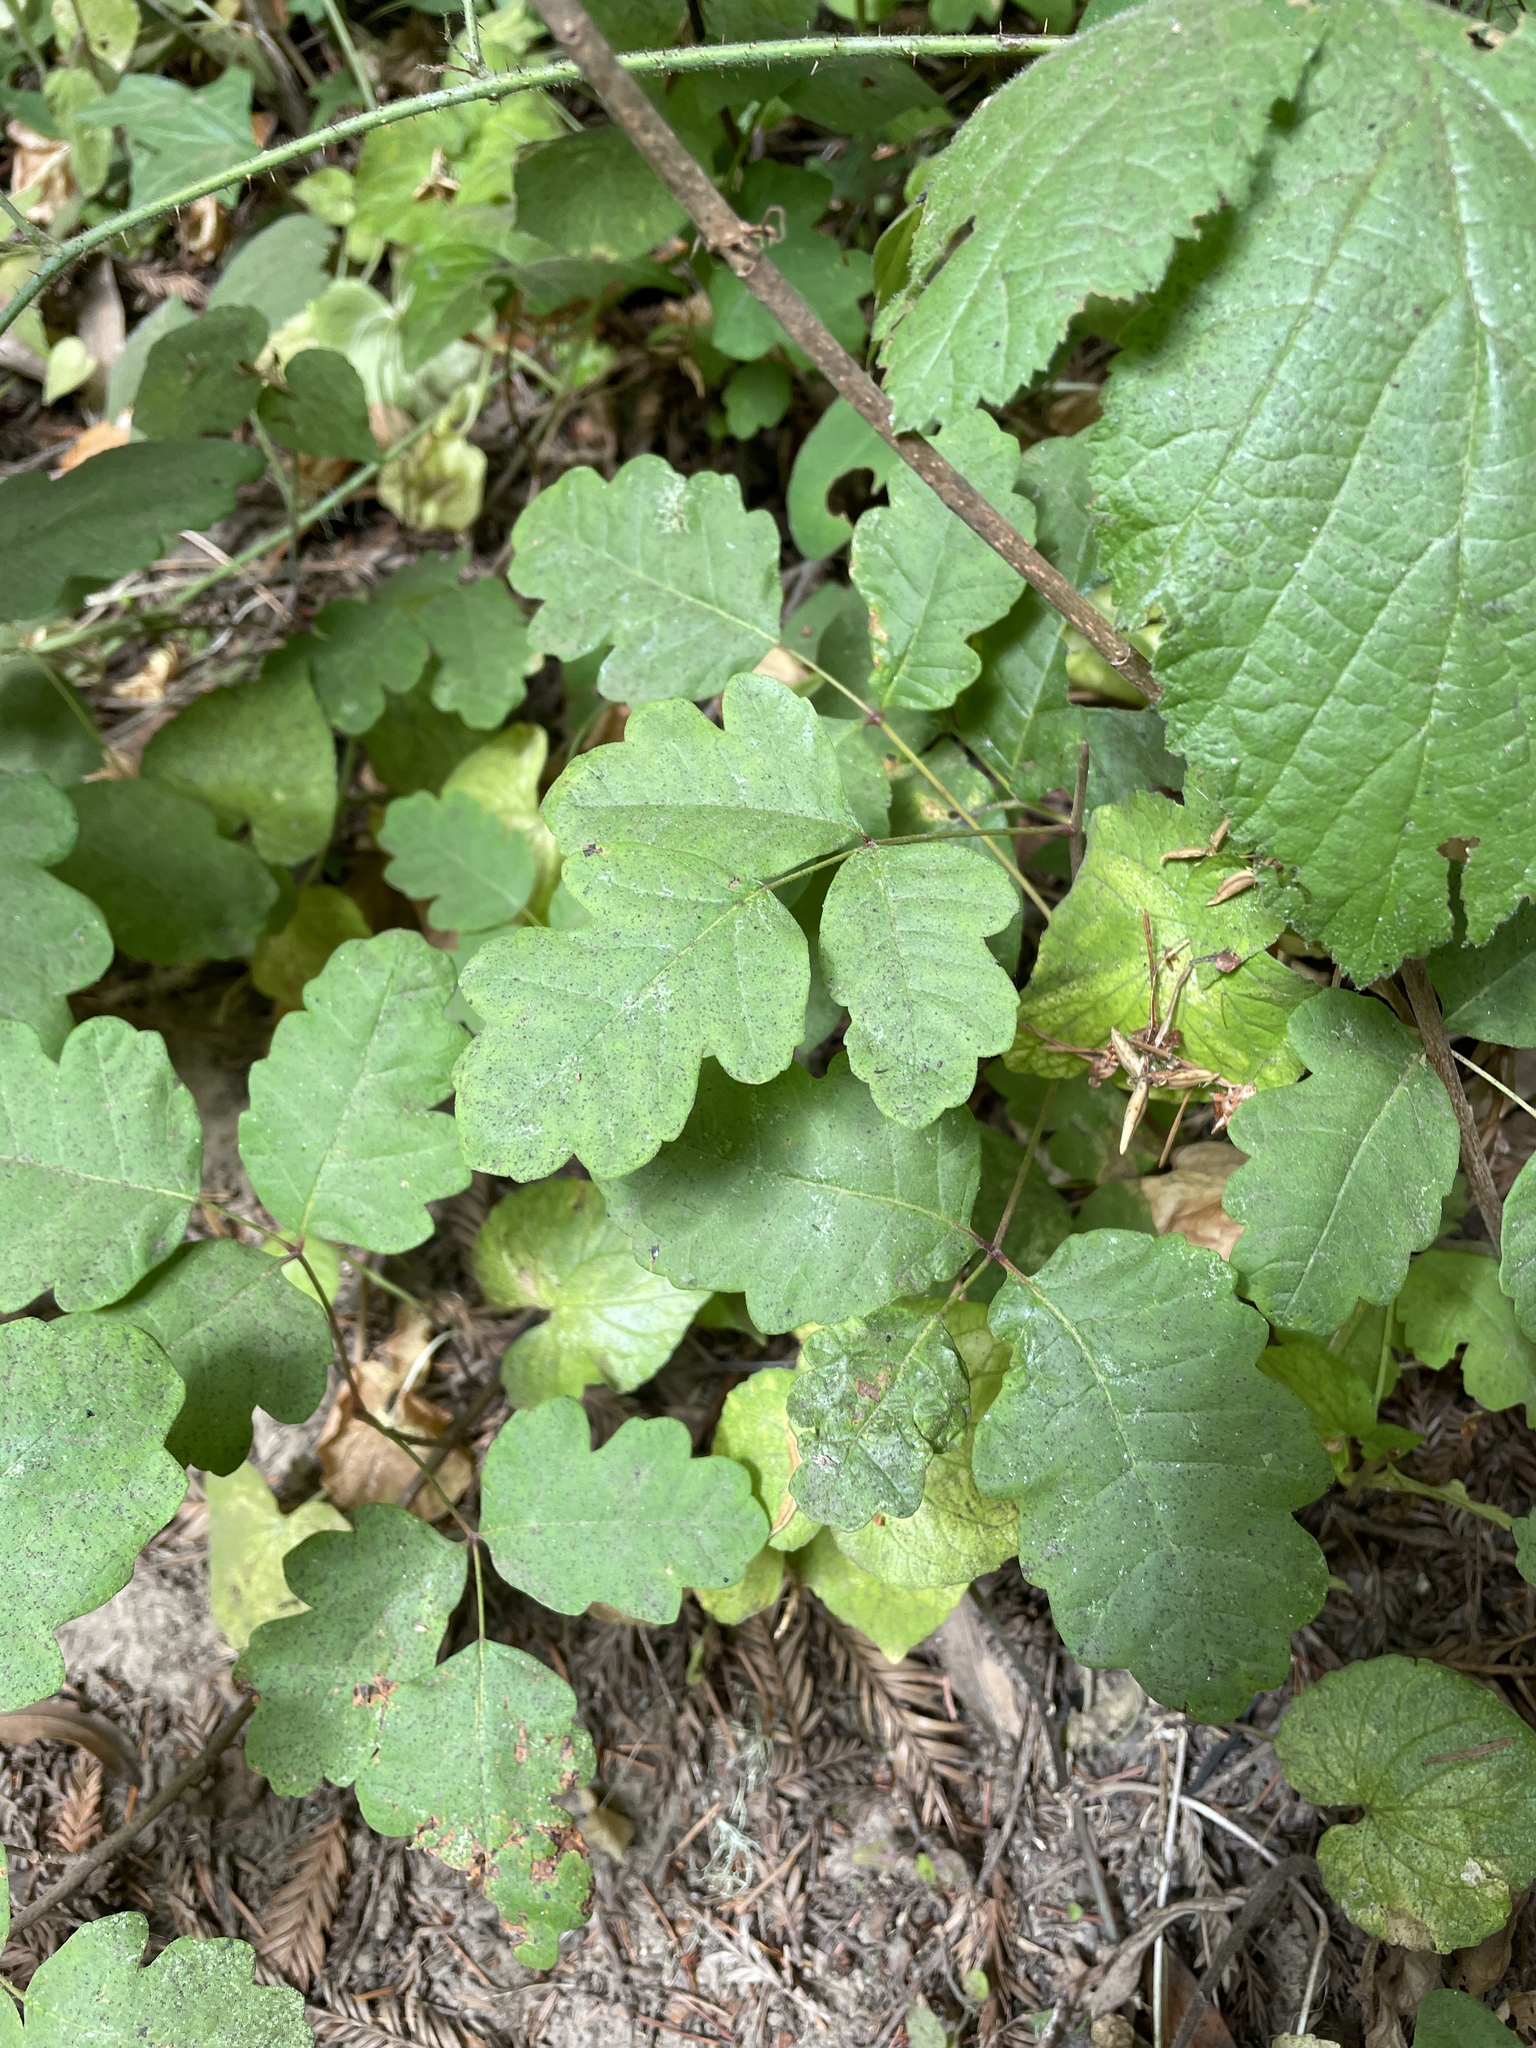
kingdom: Plantae
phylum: Tracheophyta
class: Magnoliopsida
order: Sapindales
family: Anacardiaceae
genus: Toxicodendron
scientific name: Toxicodendron diversilobum
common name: Pacific poison-oak
